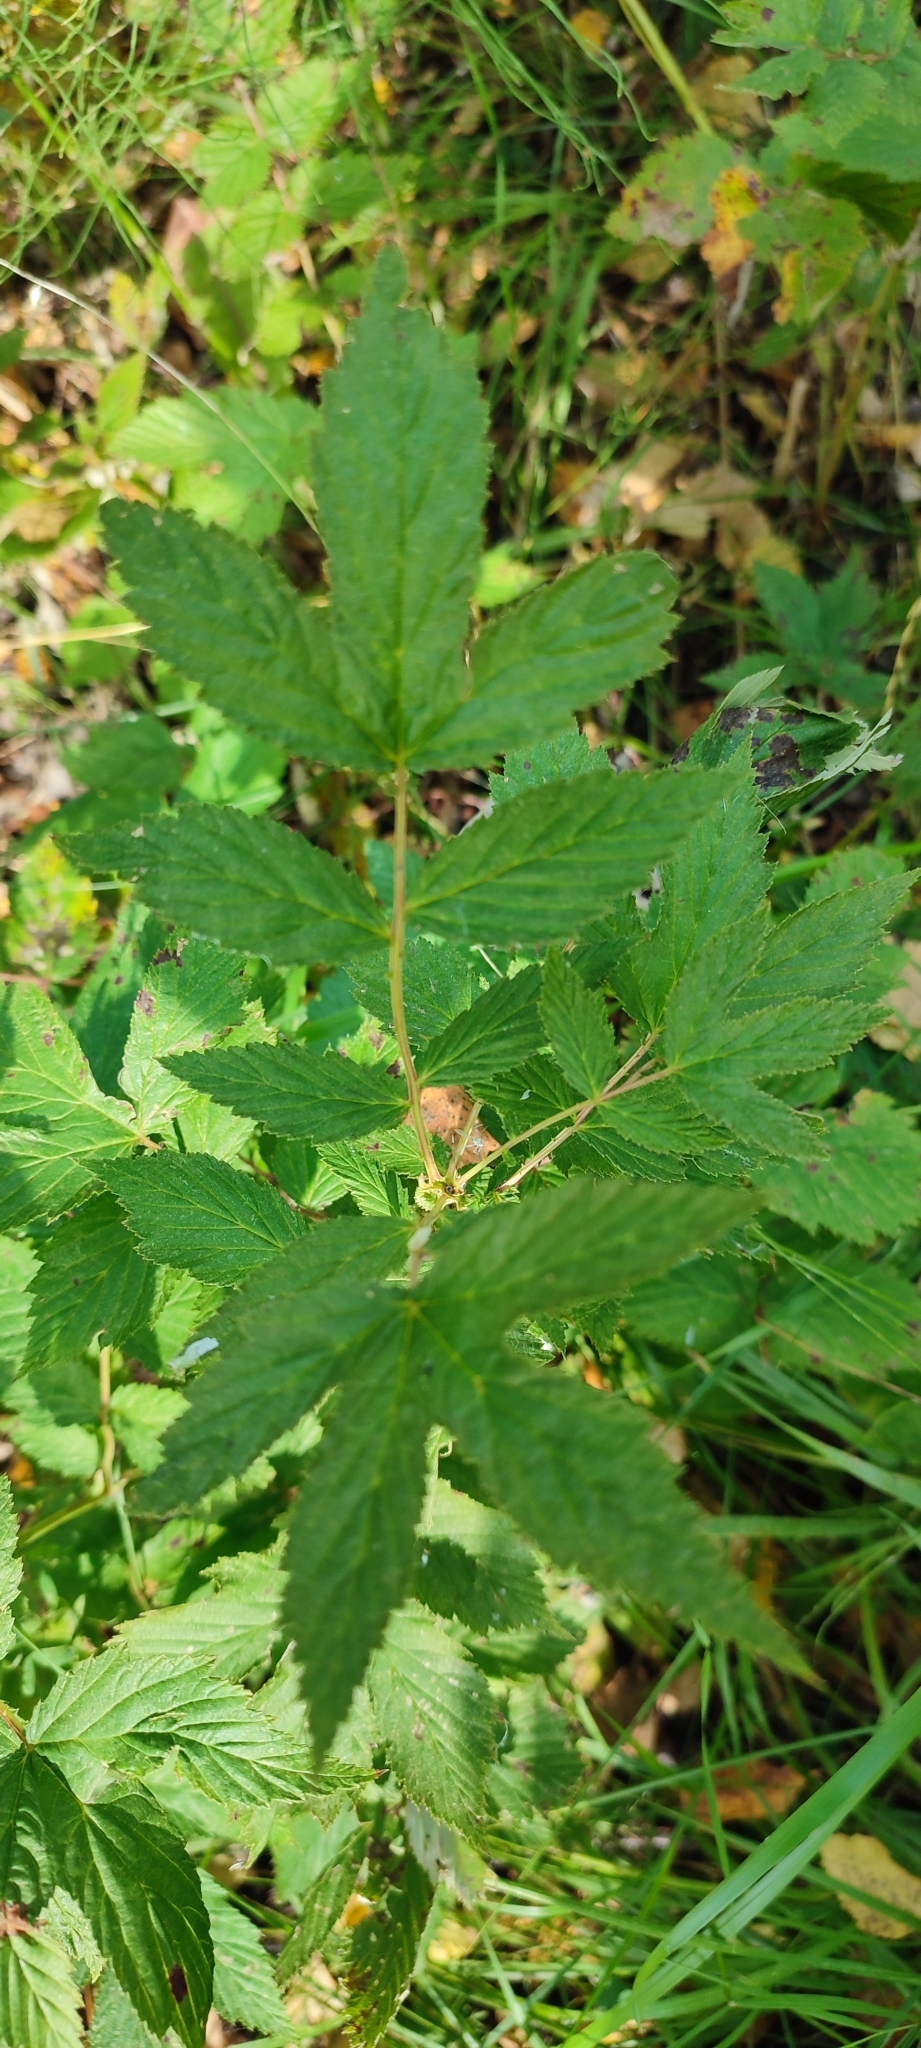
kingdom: Plantae
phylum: Tracheophyta
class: Magnoliopsida
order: Rosales
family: Rosaceae
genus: Filipendula
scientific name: Filipendula ulmaria
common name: Meadowsweet
